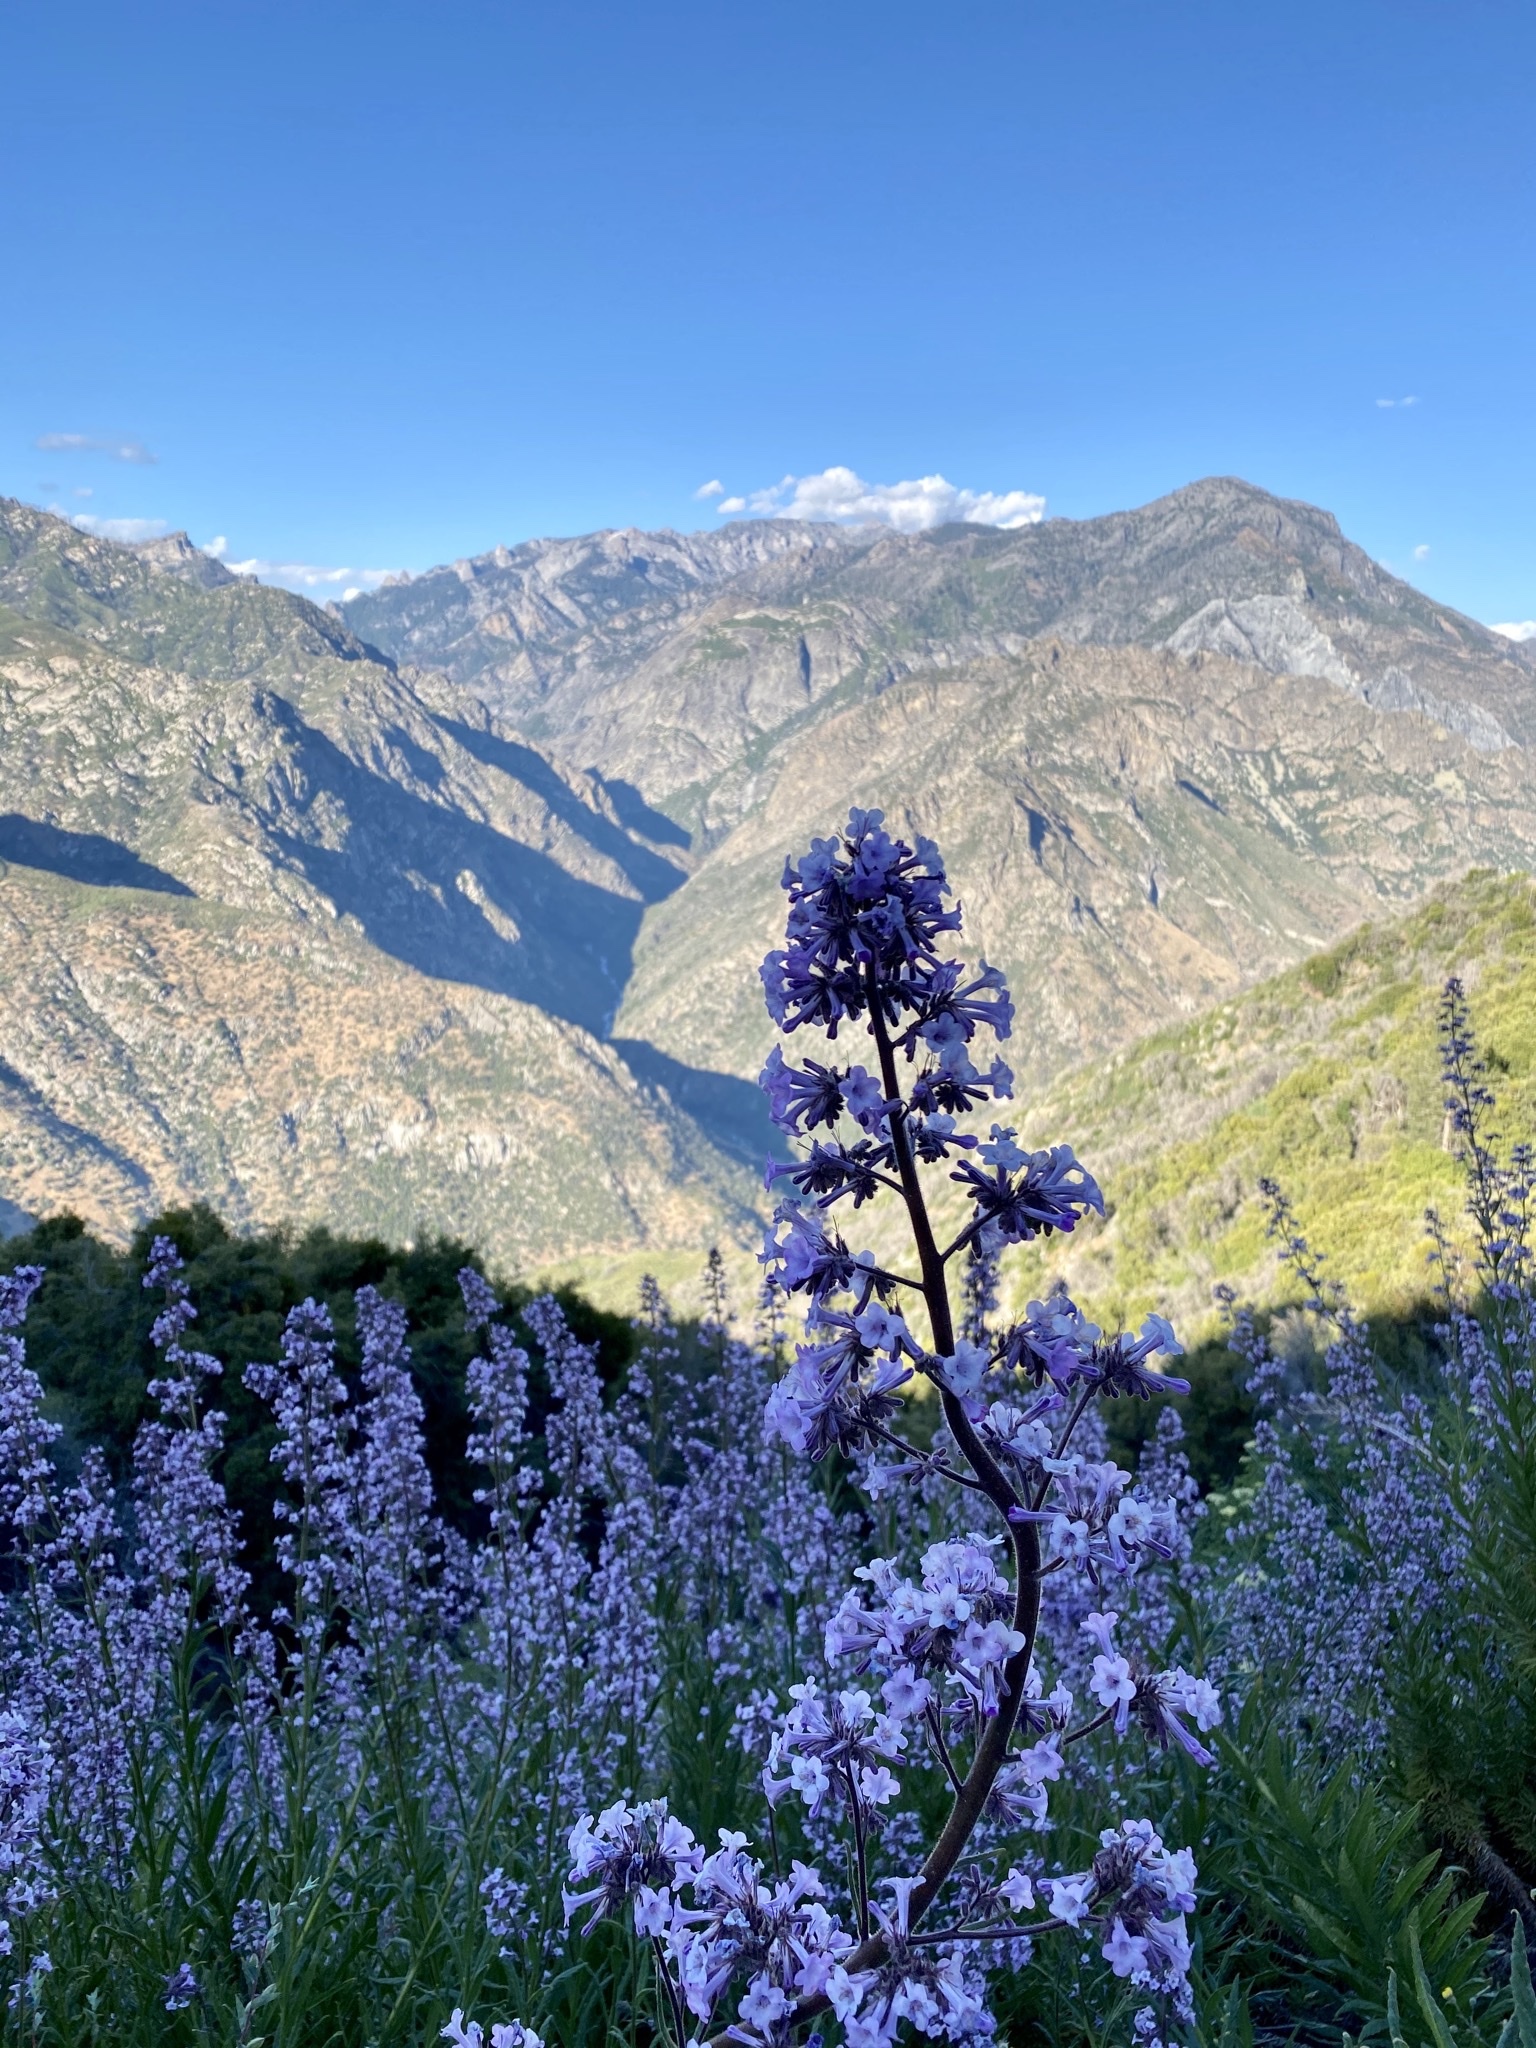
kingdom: Plantae
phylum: Tracheophyta
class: Magnoliopsida
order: Boraginales
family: Namaceae
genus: Turricula
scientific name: Turricula parryi
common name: Poodle-dog-bush
